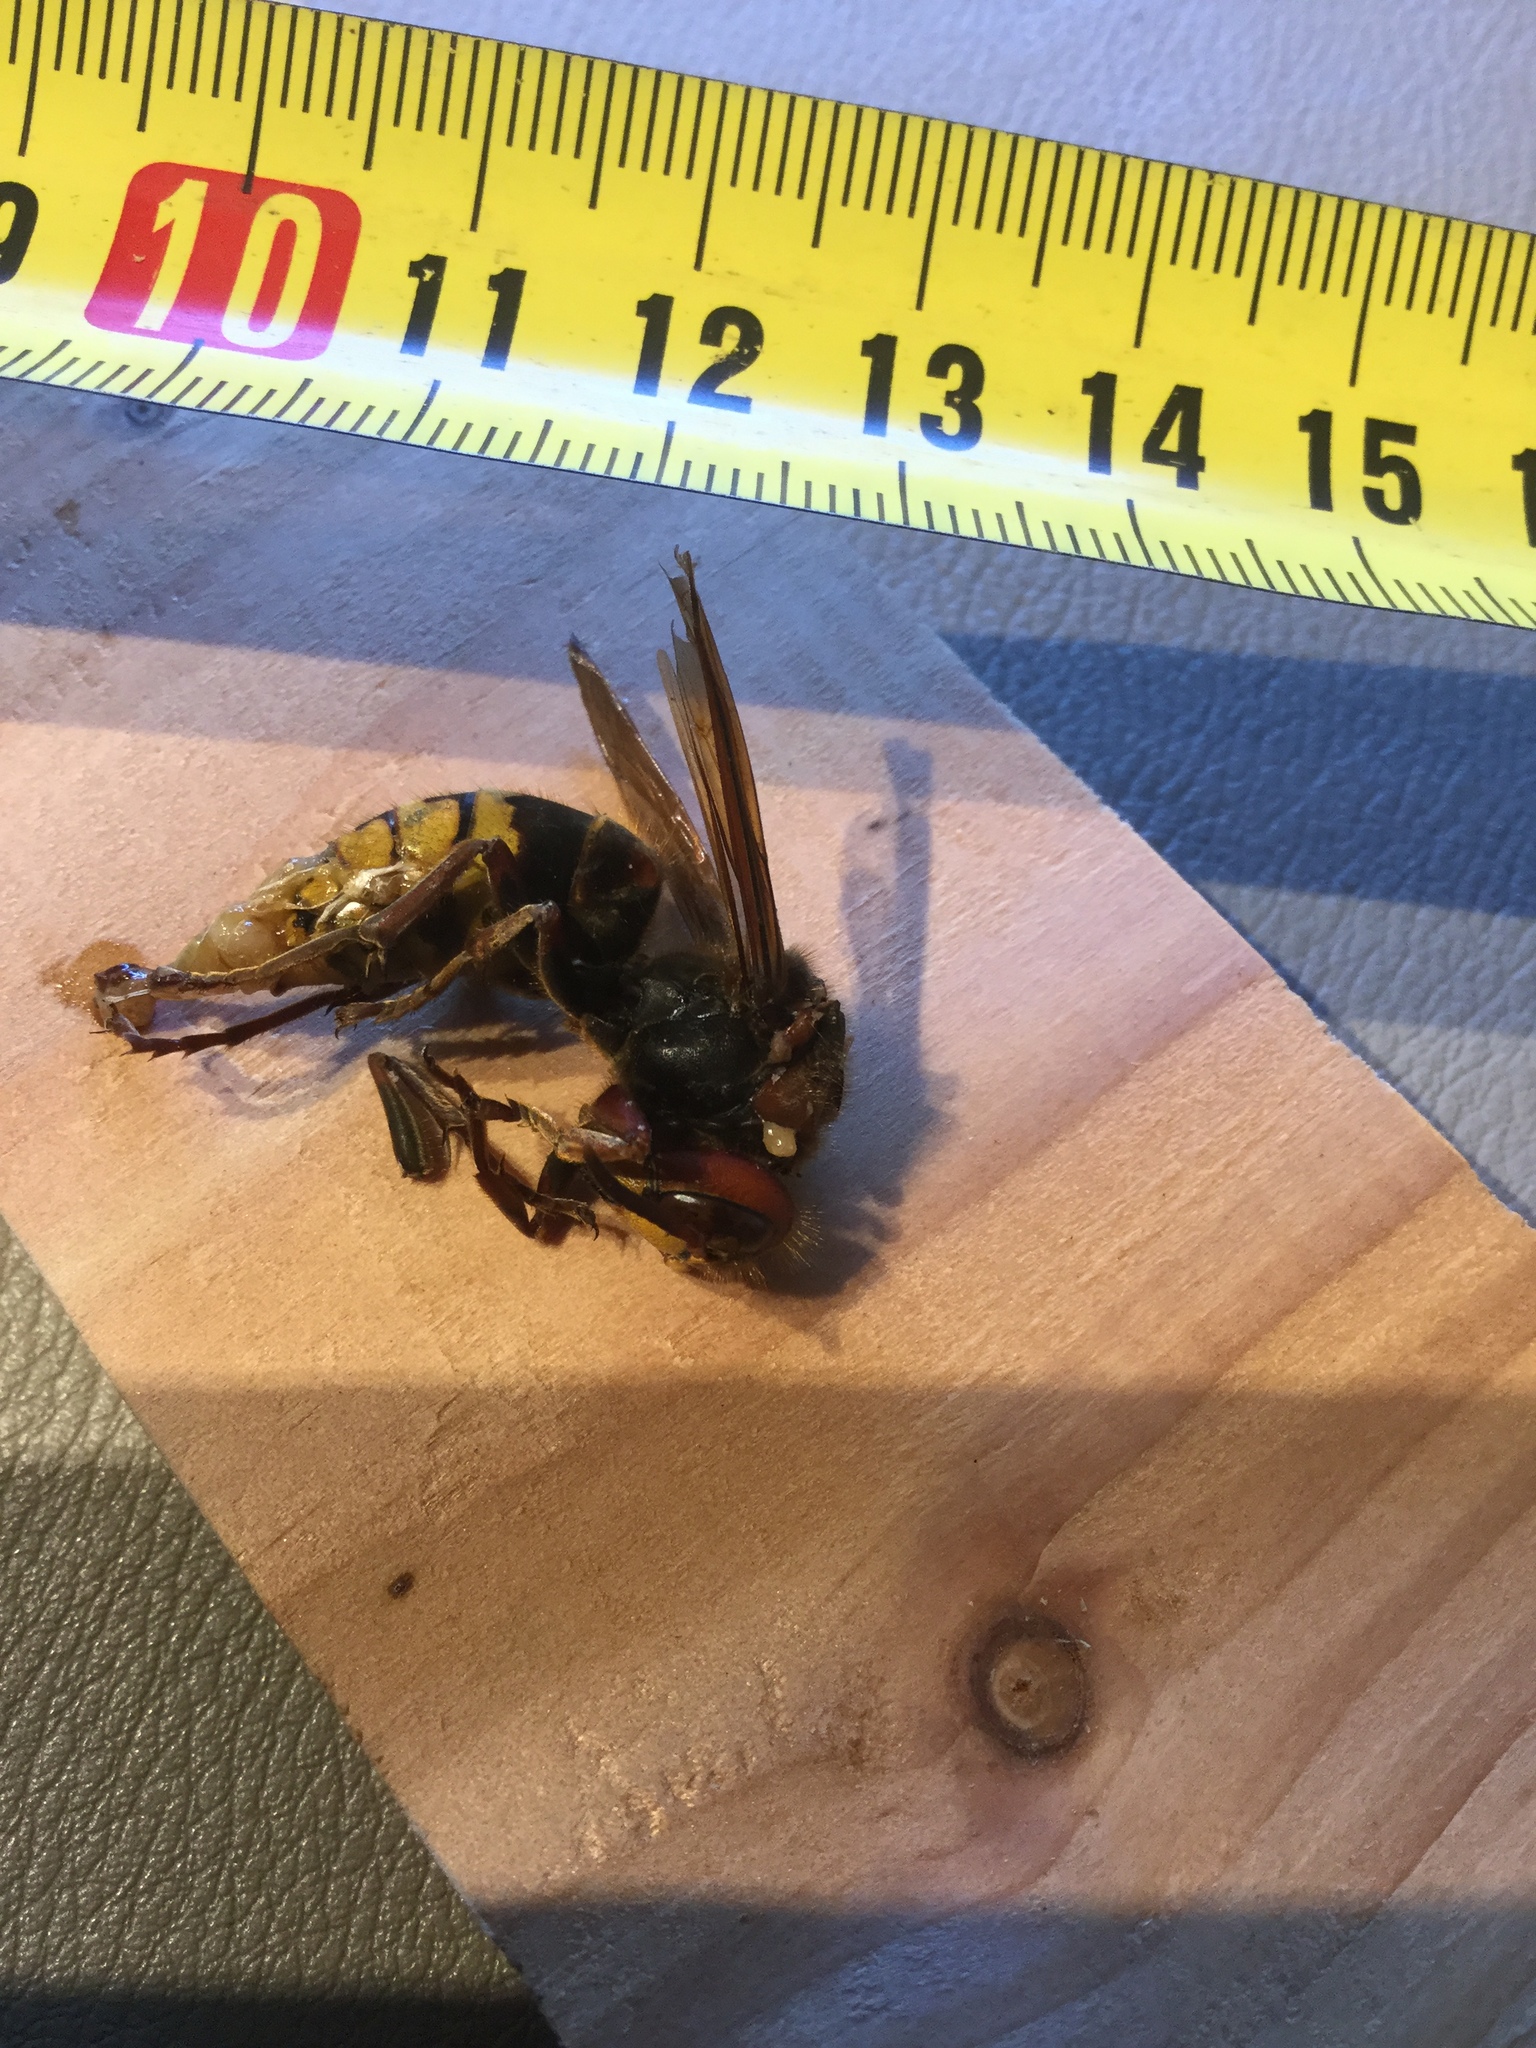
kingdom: Animalia
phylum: Arthropoda
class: Insecta
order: Hymenoptera
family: Vespidae
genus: Vespa
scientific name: Vespa crabro
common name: Hornet
